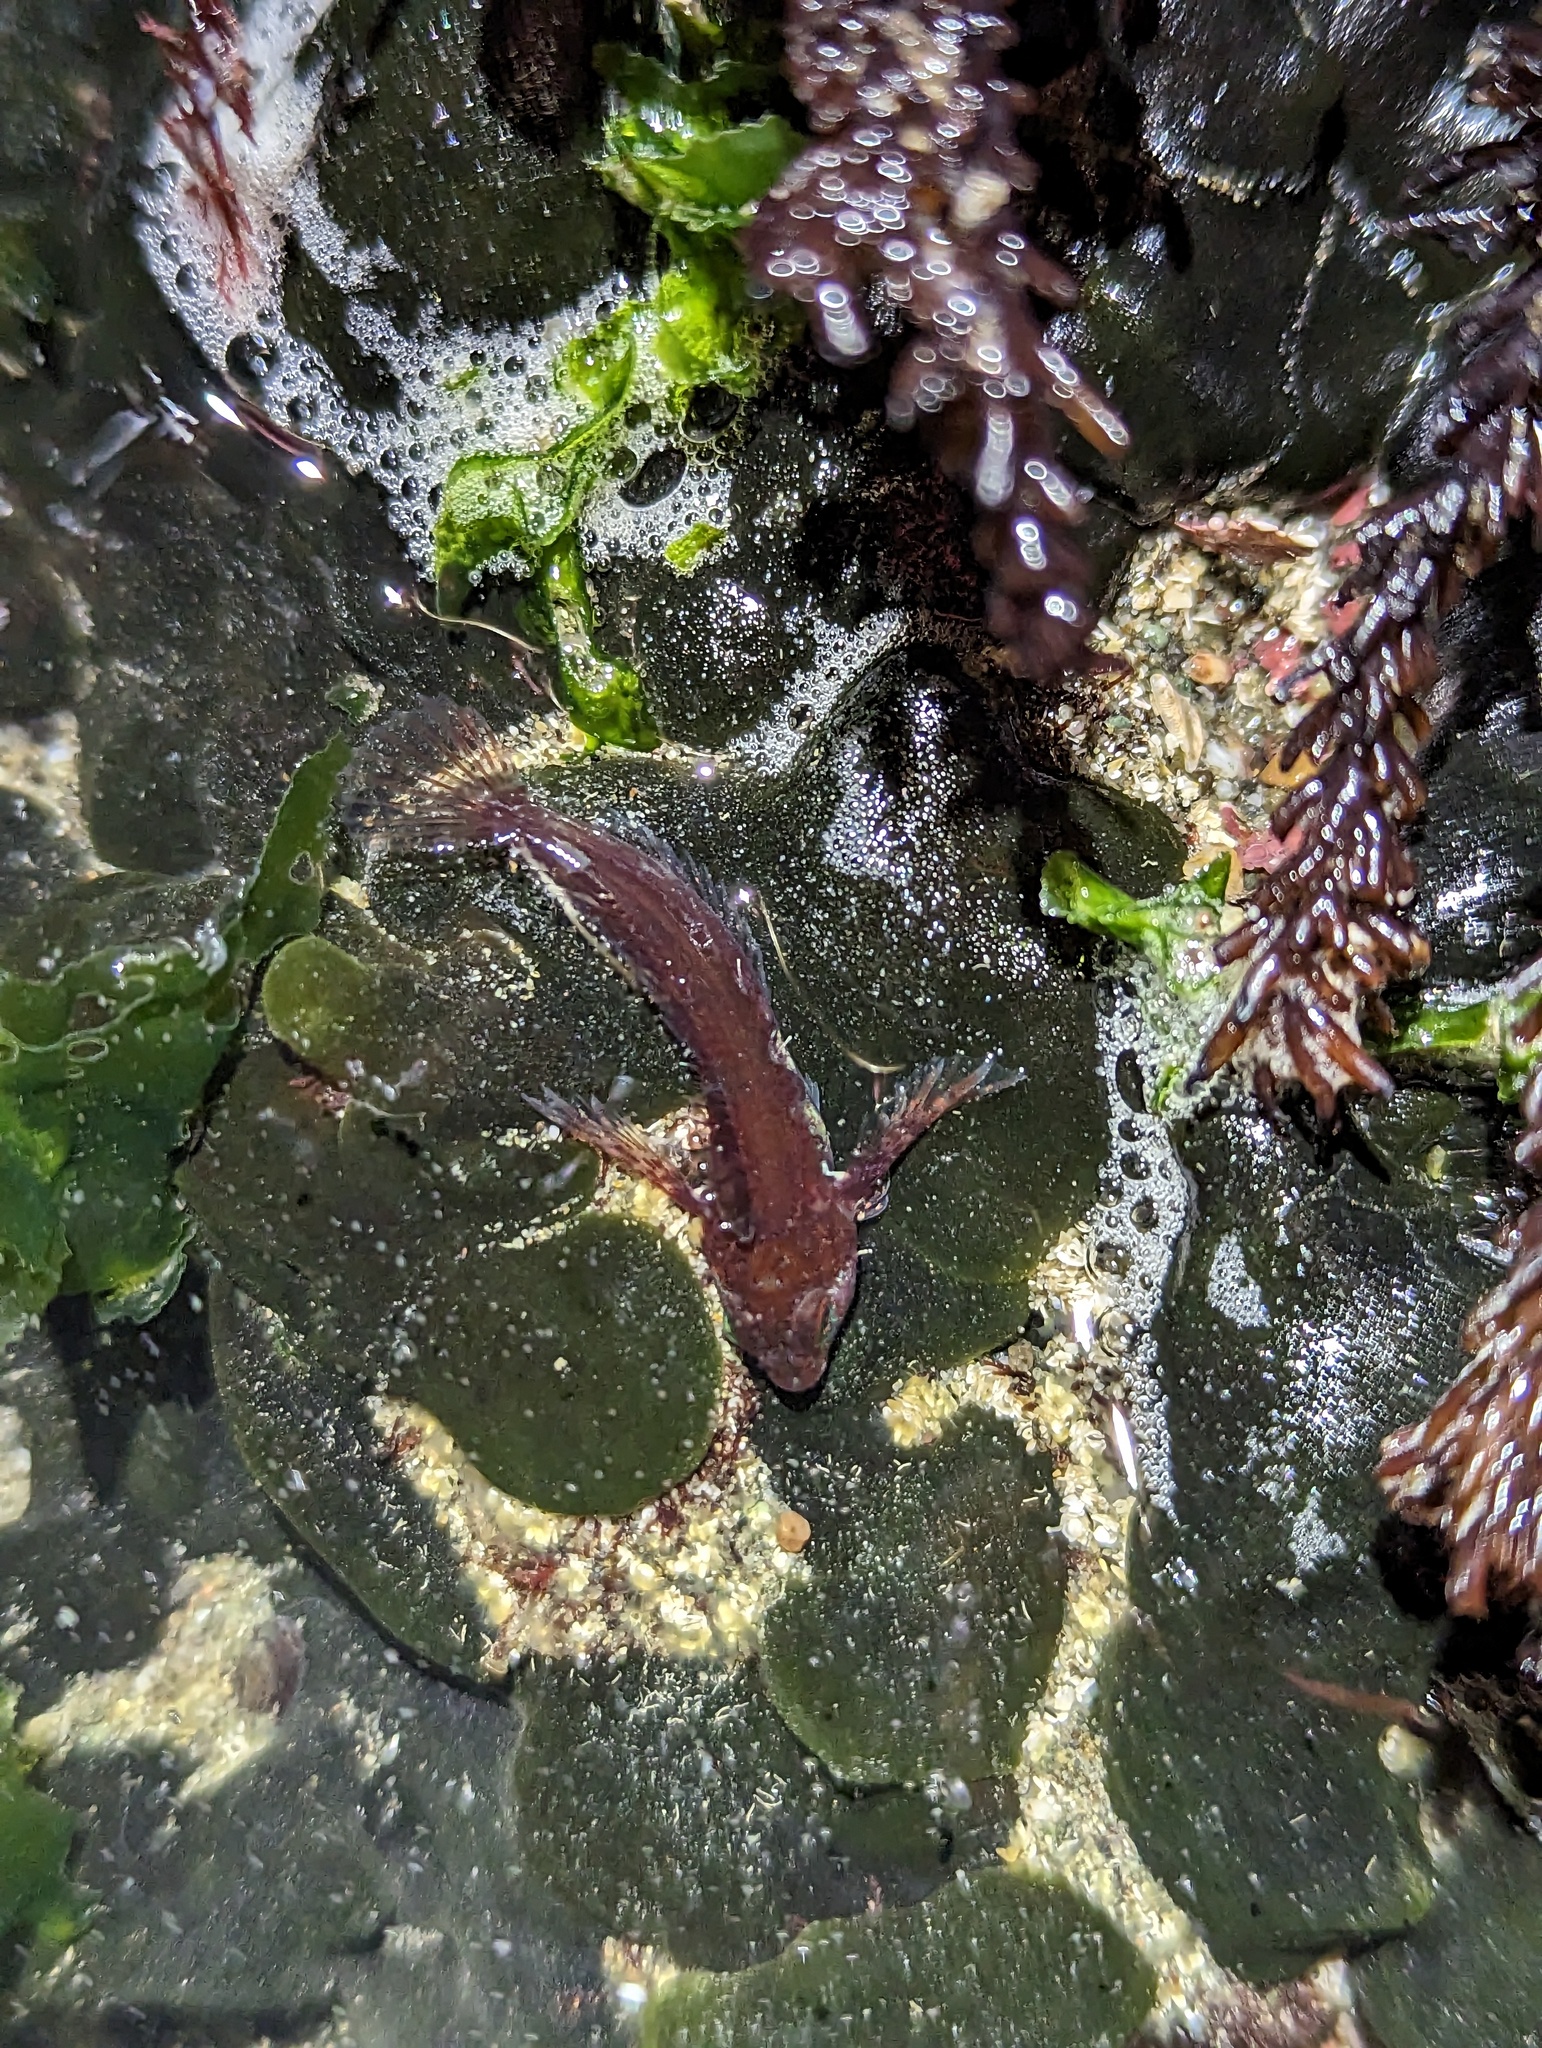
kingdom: Animalia
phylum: Chordata
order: Scorpaeniformes
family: Cottidae
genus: Oligocottus
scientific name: Oligocottus snyderi
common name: Fluffy sculpin
